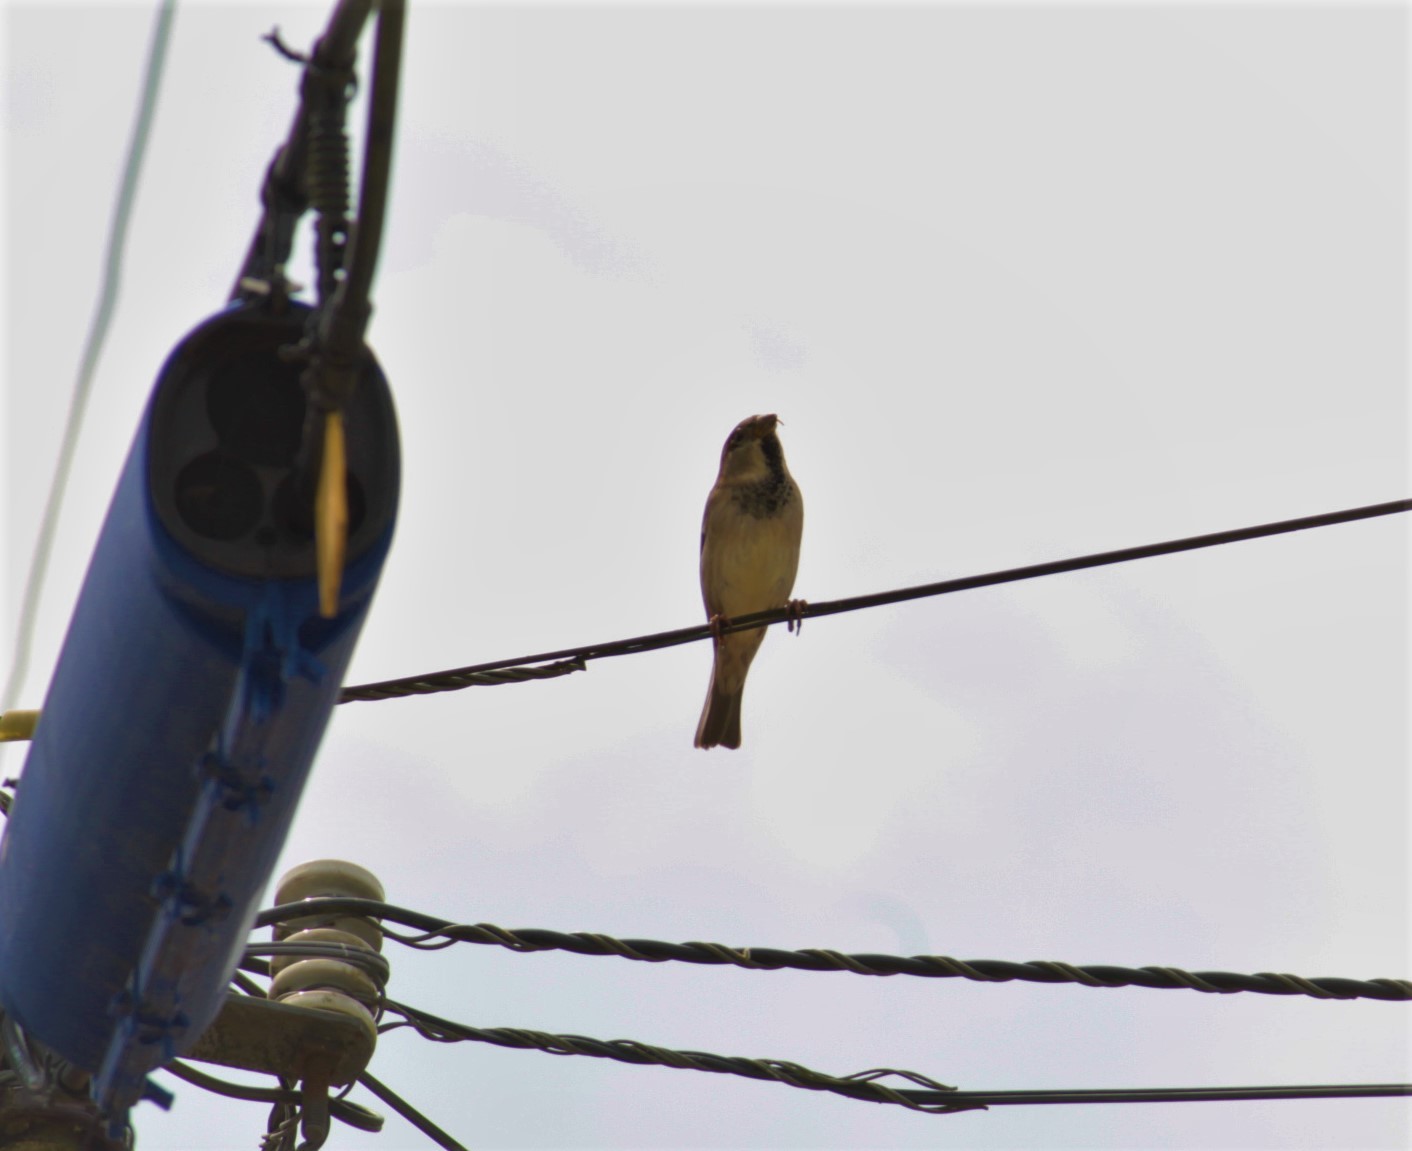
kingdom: Animalia
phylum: Chordata
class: Aves
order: Passeriformes
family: Passeridae
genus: Passer
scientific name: Passer domesticus
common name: House sparrow
